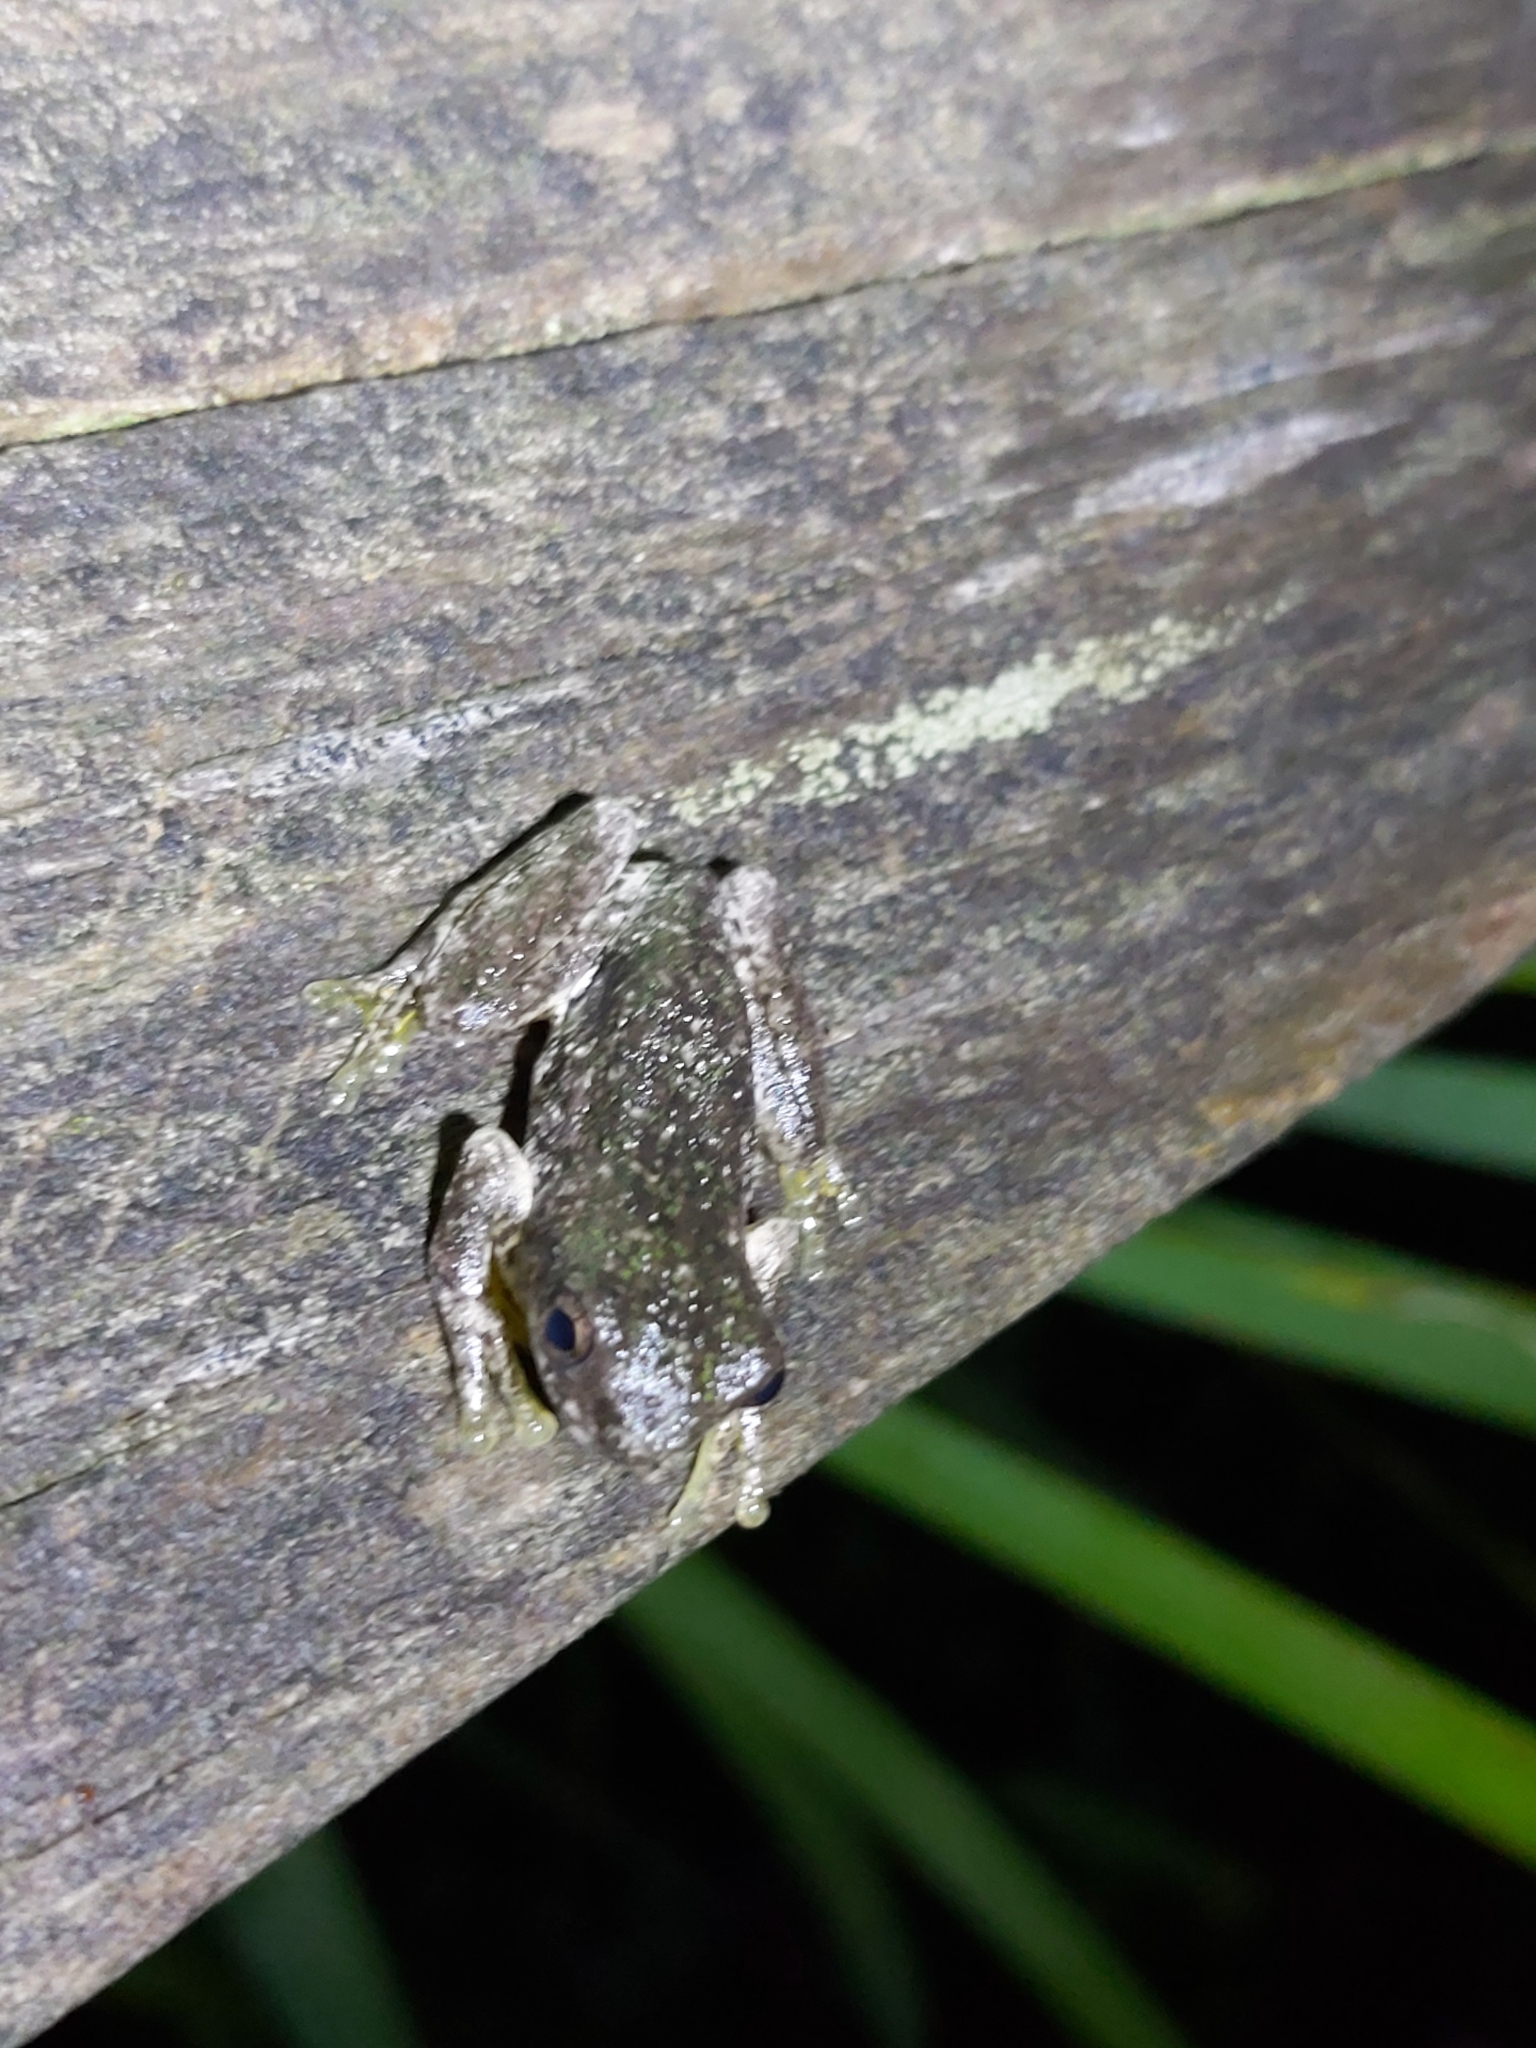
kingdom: Animalia
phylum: Chordata
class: Amphibia
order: Anura
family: Pelodryadidae
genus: Litoria
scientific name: Litoria peronii
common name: Emerald spotted treefrog
